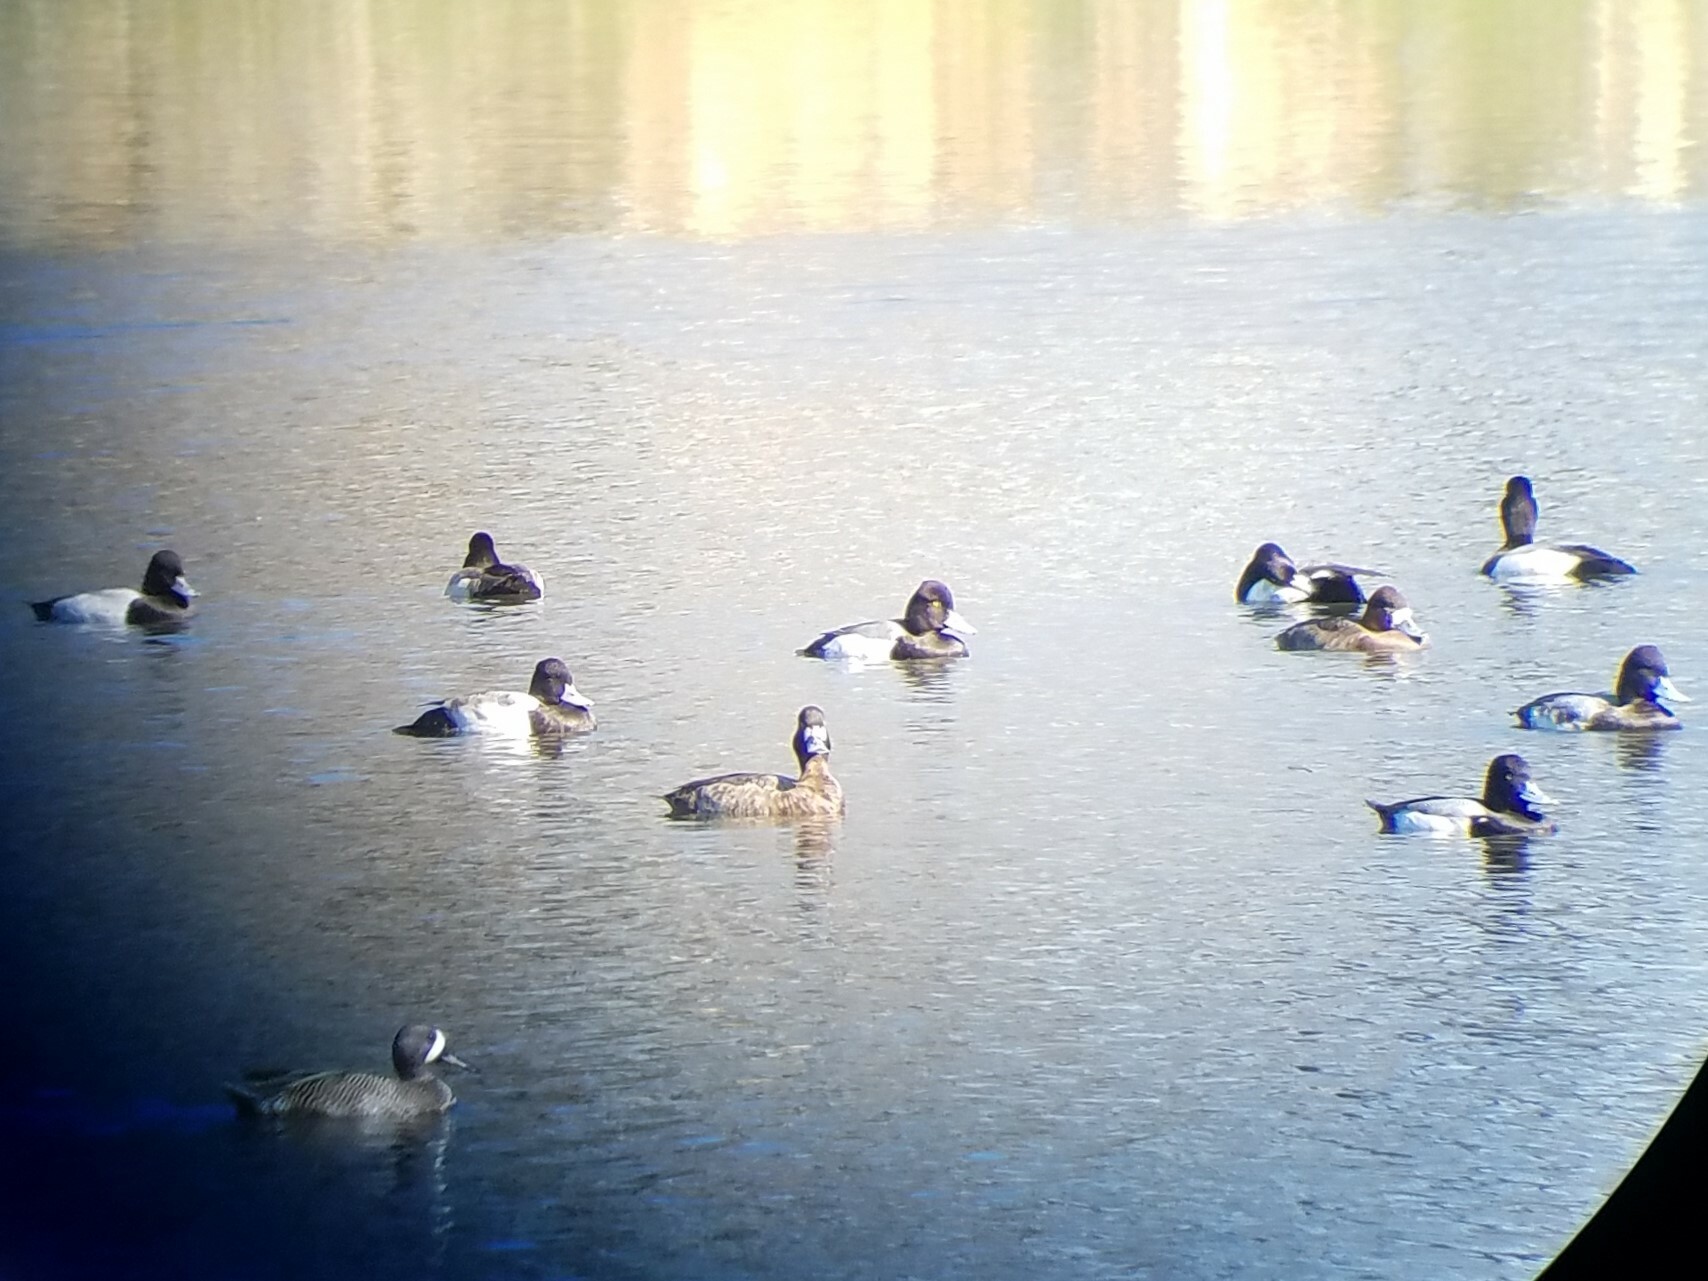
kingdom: Animalia
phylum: Chordata
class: Aves
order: Anseriformes
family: Anatidae
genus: Aythya
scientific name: Aythya affinis
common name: Lesser scaup
